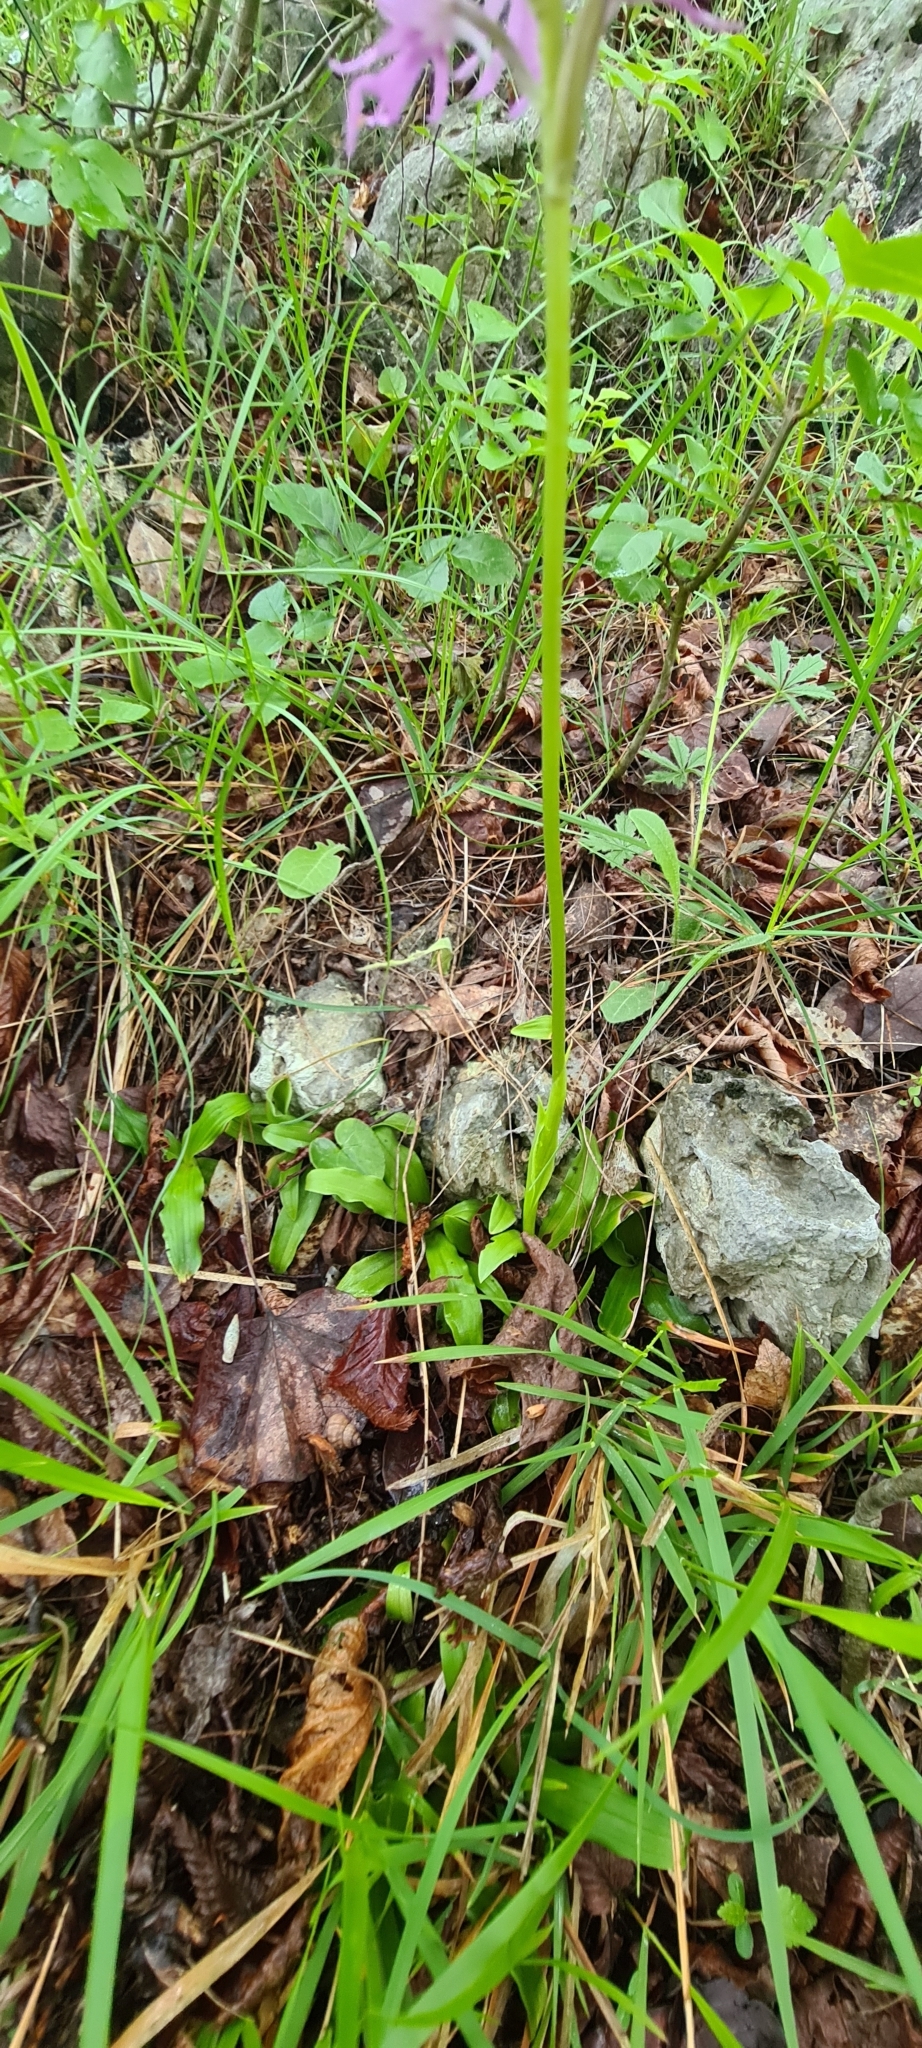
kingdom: Plantae
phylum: Tracheophyta
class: Liliopsida
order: Asparagales
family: Orchidaceae
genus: Orchis
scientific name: Orchis italica
